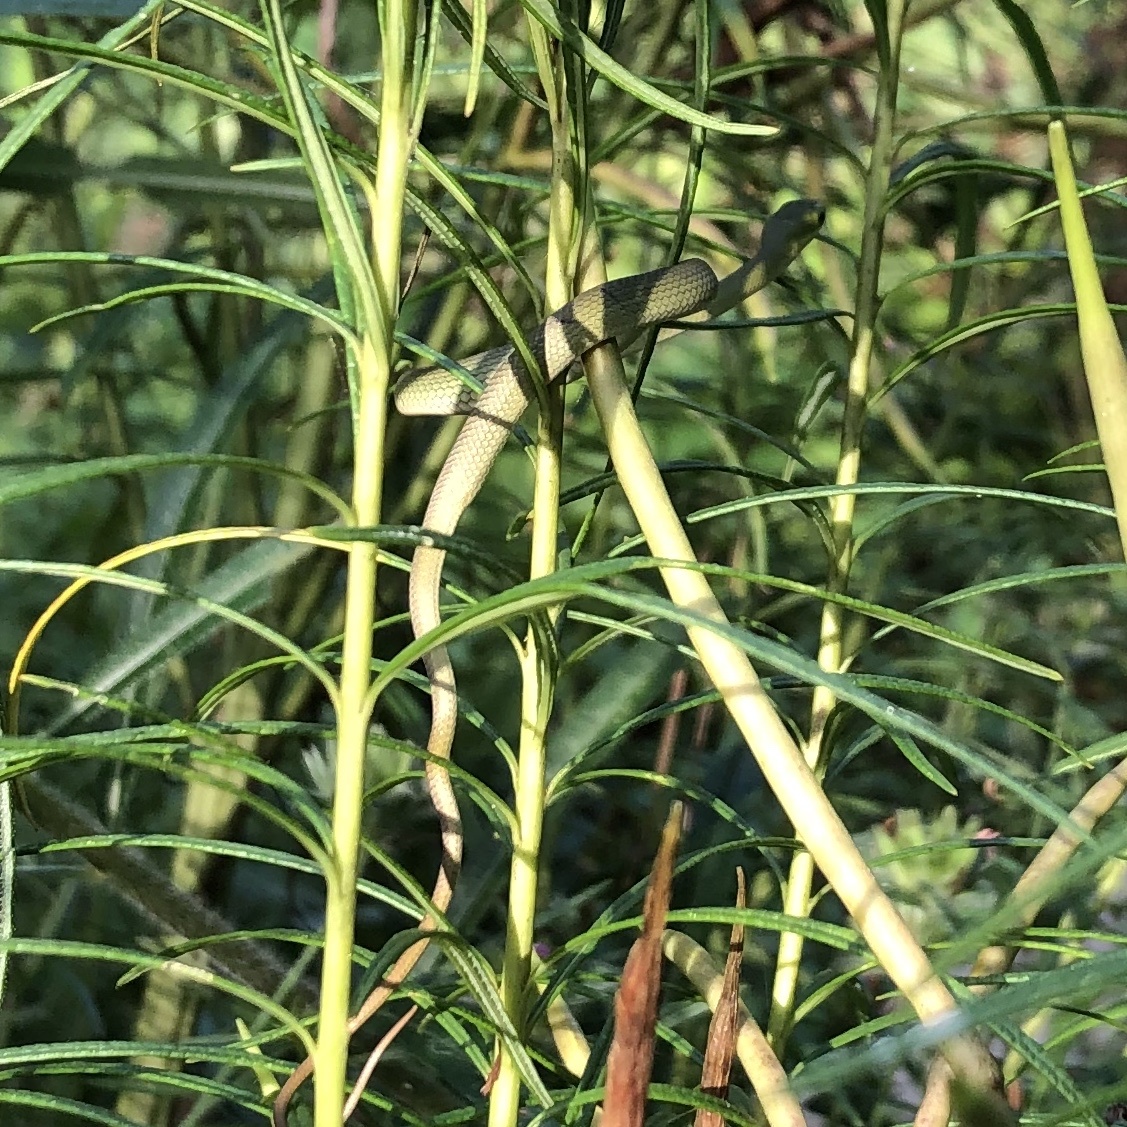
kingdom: Animalia
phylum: Chordata
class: Squamata
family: Colubridae
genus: Opheodrys
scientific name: Opheodrys aestivus
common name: Rough greensnake
